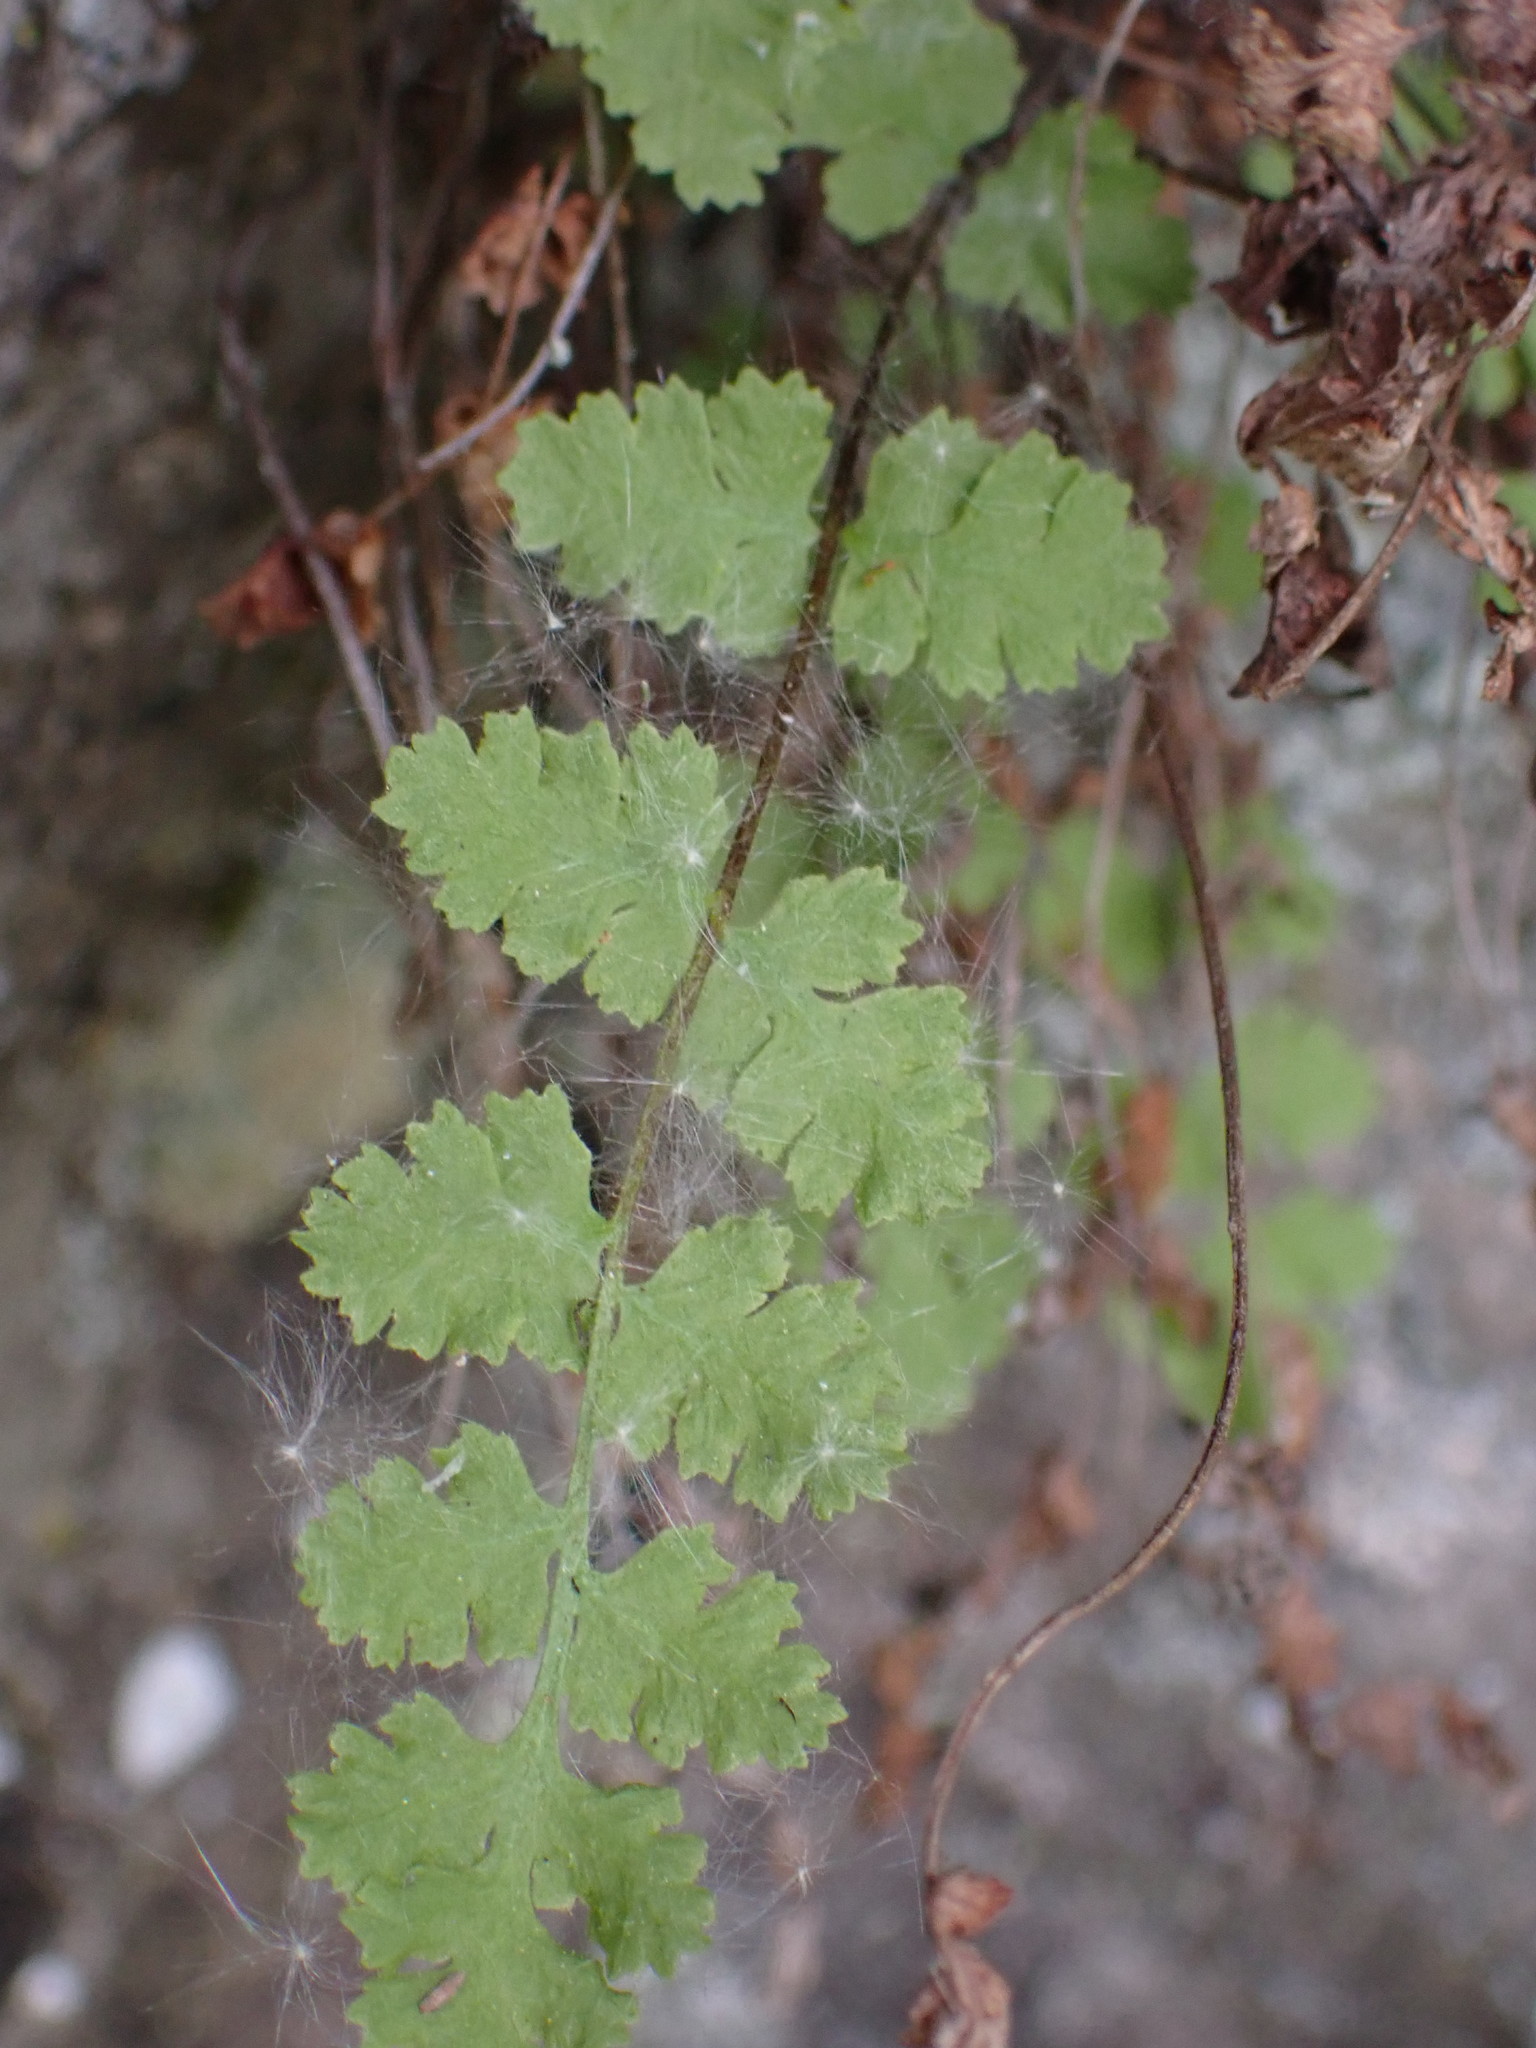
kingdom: Plantae
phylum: Tracheophyta
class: Polypodiopsida
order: Polypodiales
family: Woodsiaceae
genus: Physematium
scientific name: Physematium scopulinum
